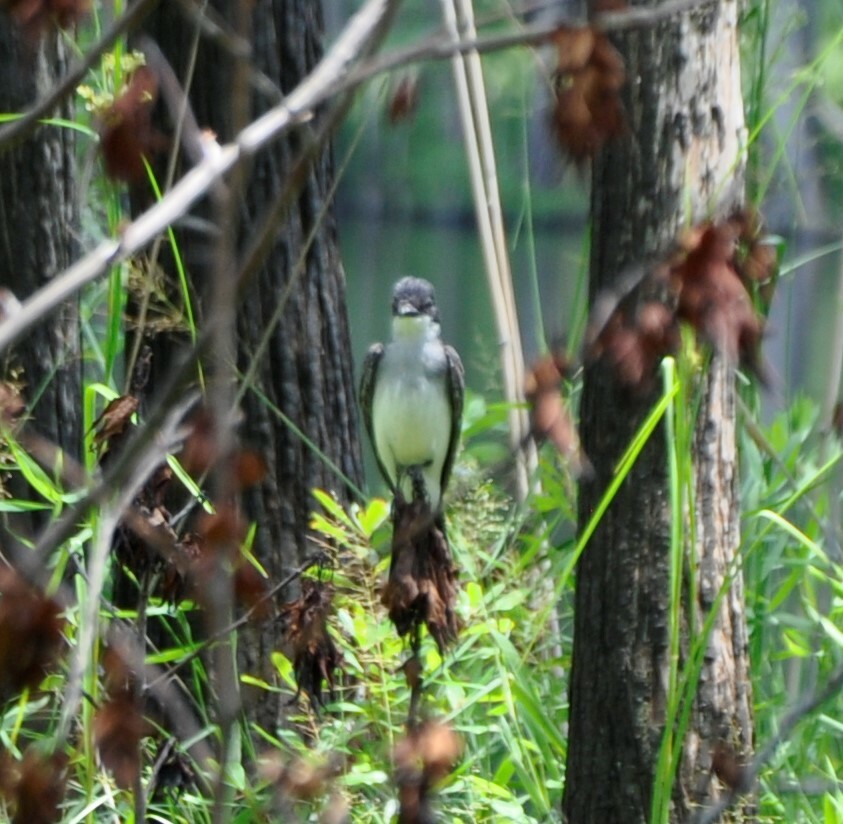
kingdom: Animalia
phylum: Chordata
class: Aves
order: Passeriformes
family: Tyrannidae
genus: Tyrannus
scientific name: Tyrannus tyrannus
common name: Eastern kingbird
